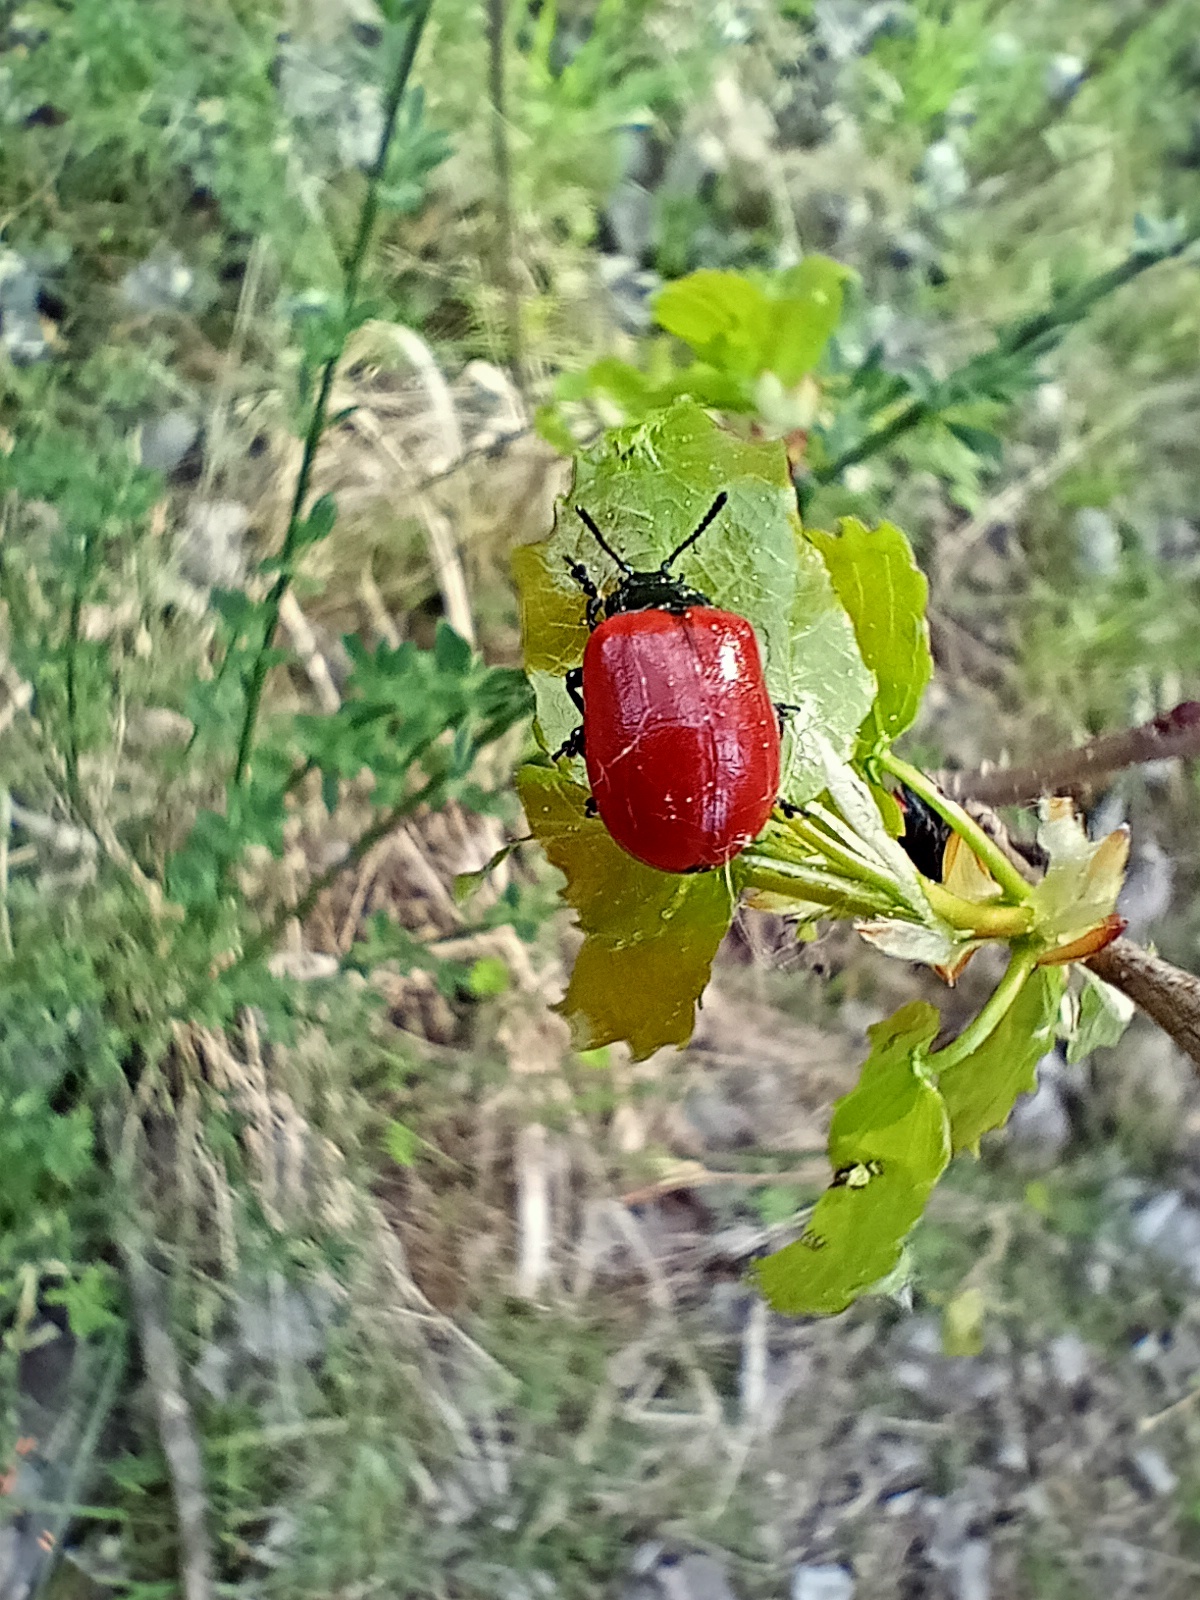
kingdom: Animalia
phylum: Arthropoda
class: Insecta
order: Coleoptera
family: Chrysomelidae
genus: Chrysomela
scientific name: Chrysomela populi
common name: Red poplar leaf beetle
